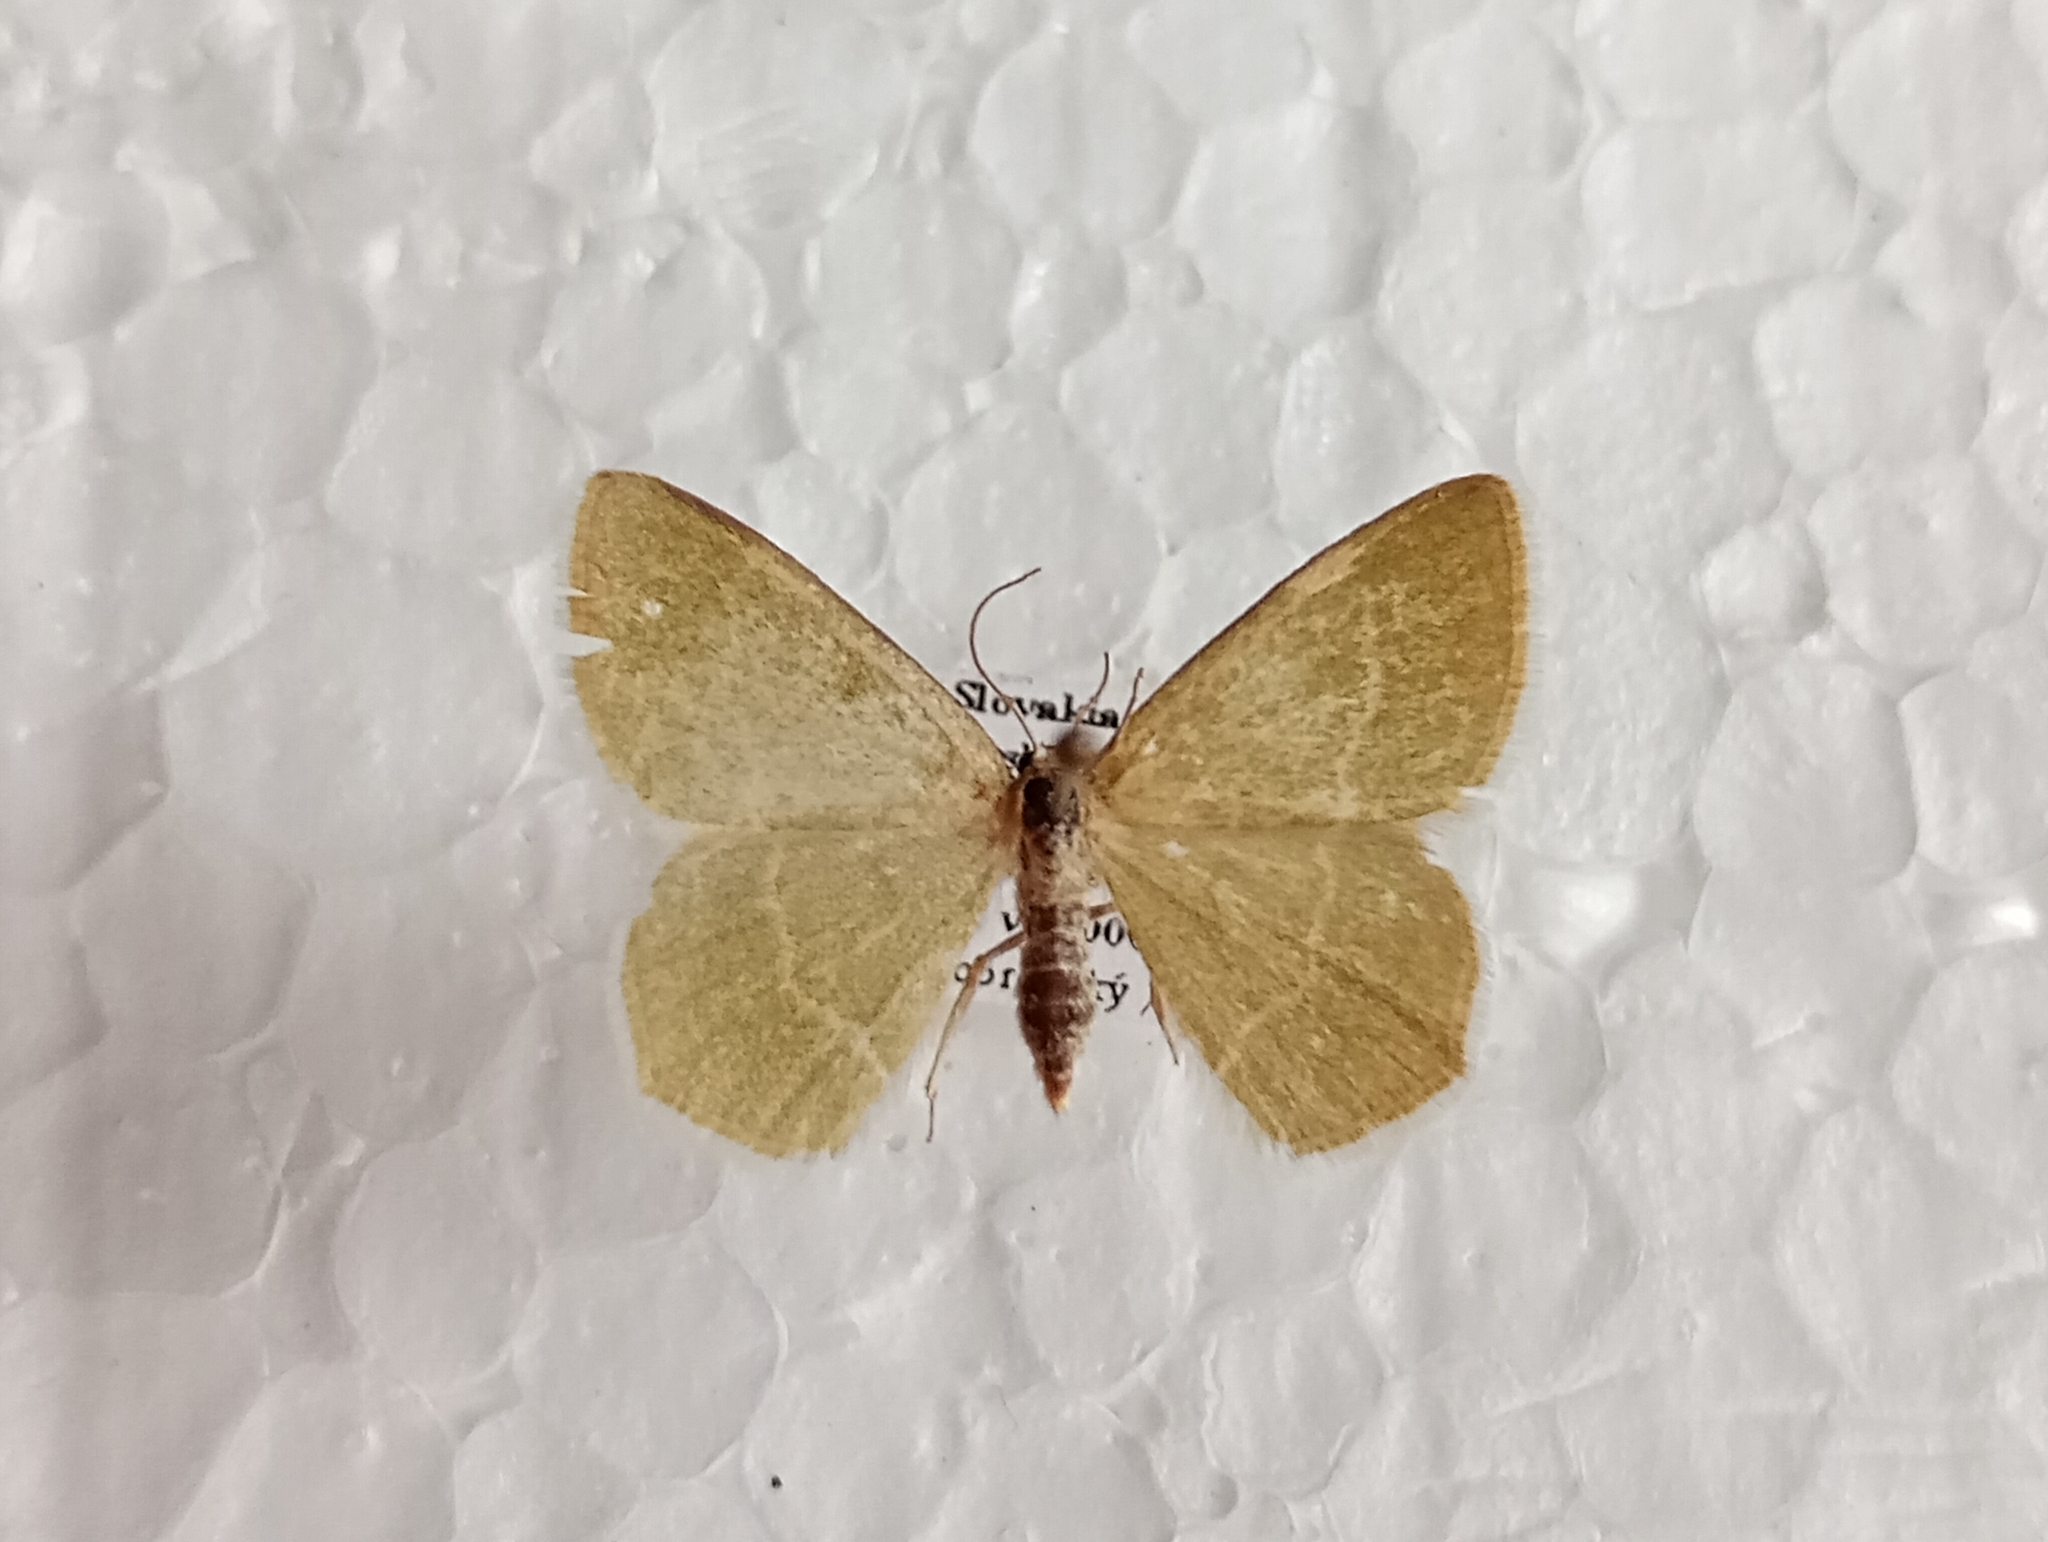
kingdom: Animalia
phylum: Arthropoda
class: Insecta
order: Lepidoptera
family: Geometridae
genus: Chlorissa
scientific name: Chlorissa viridata
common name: Small grass emerald
